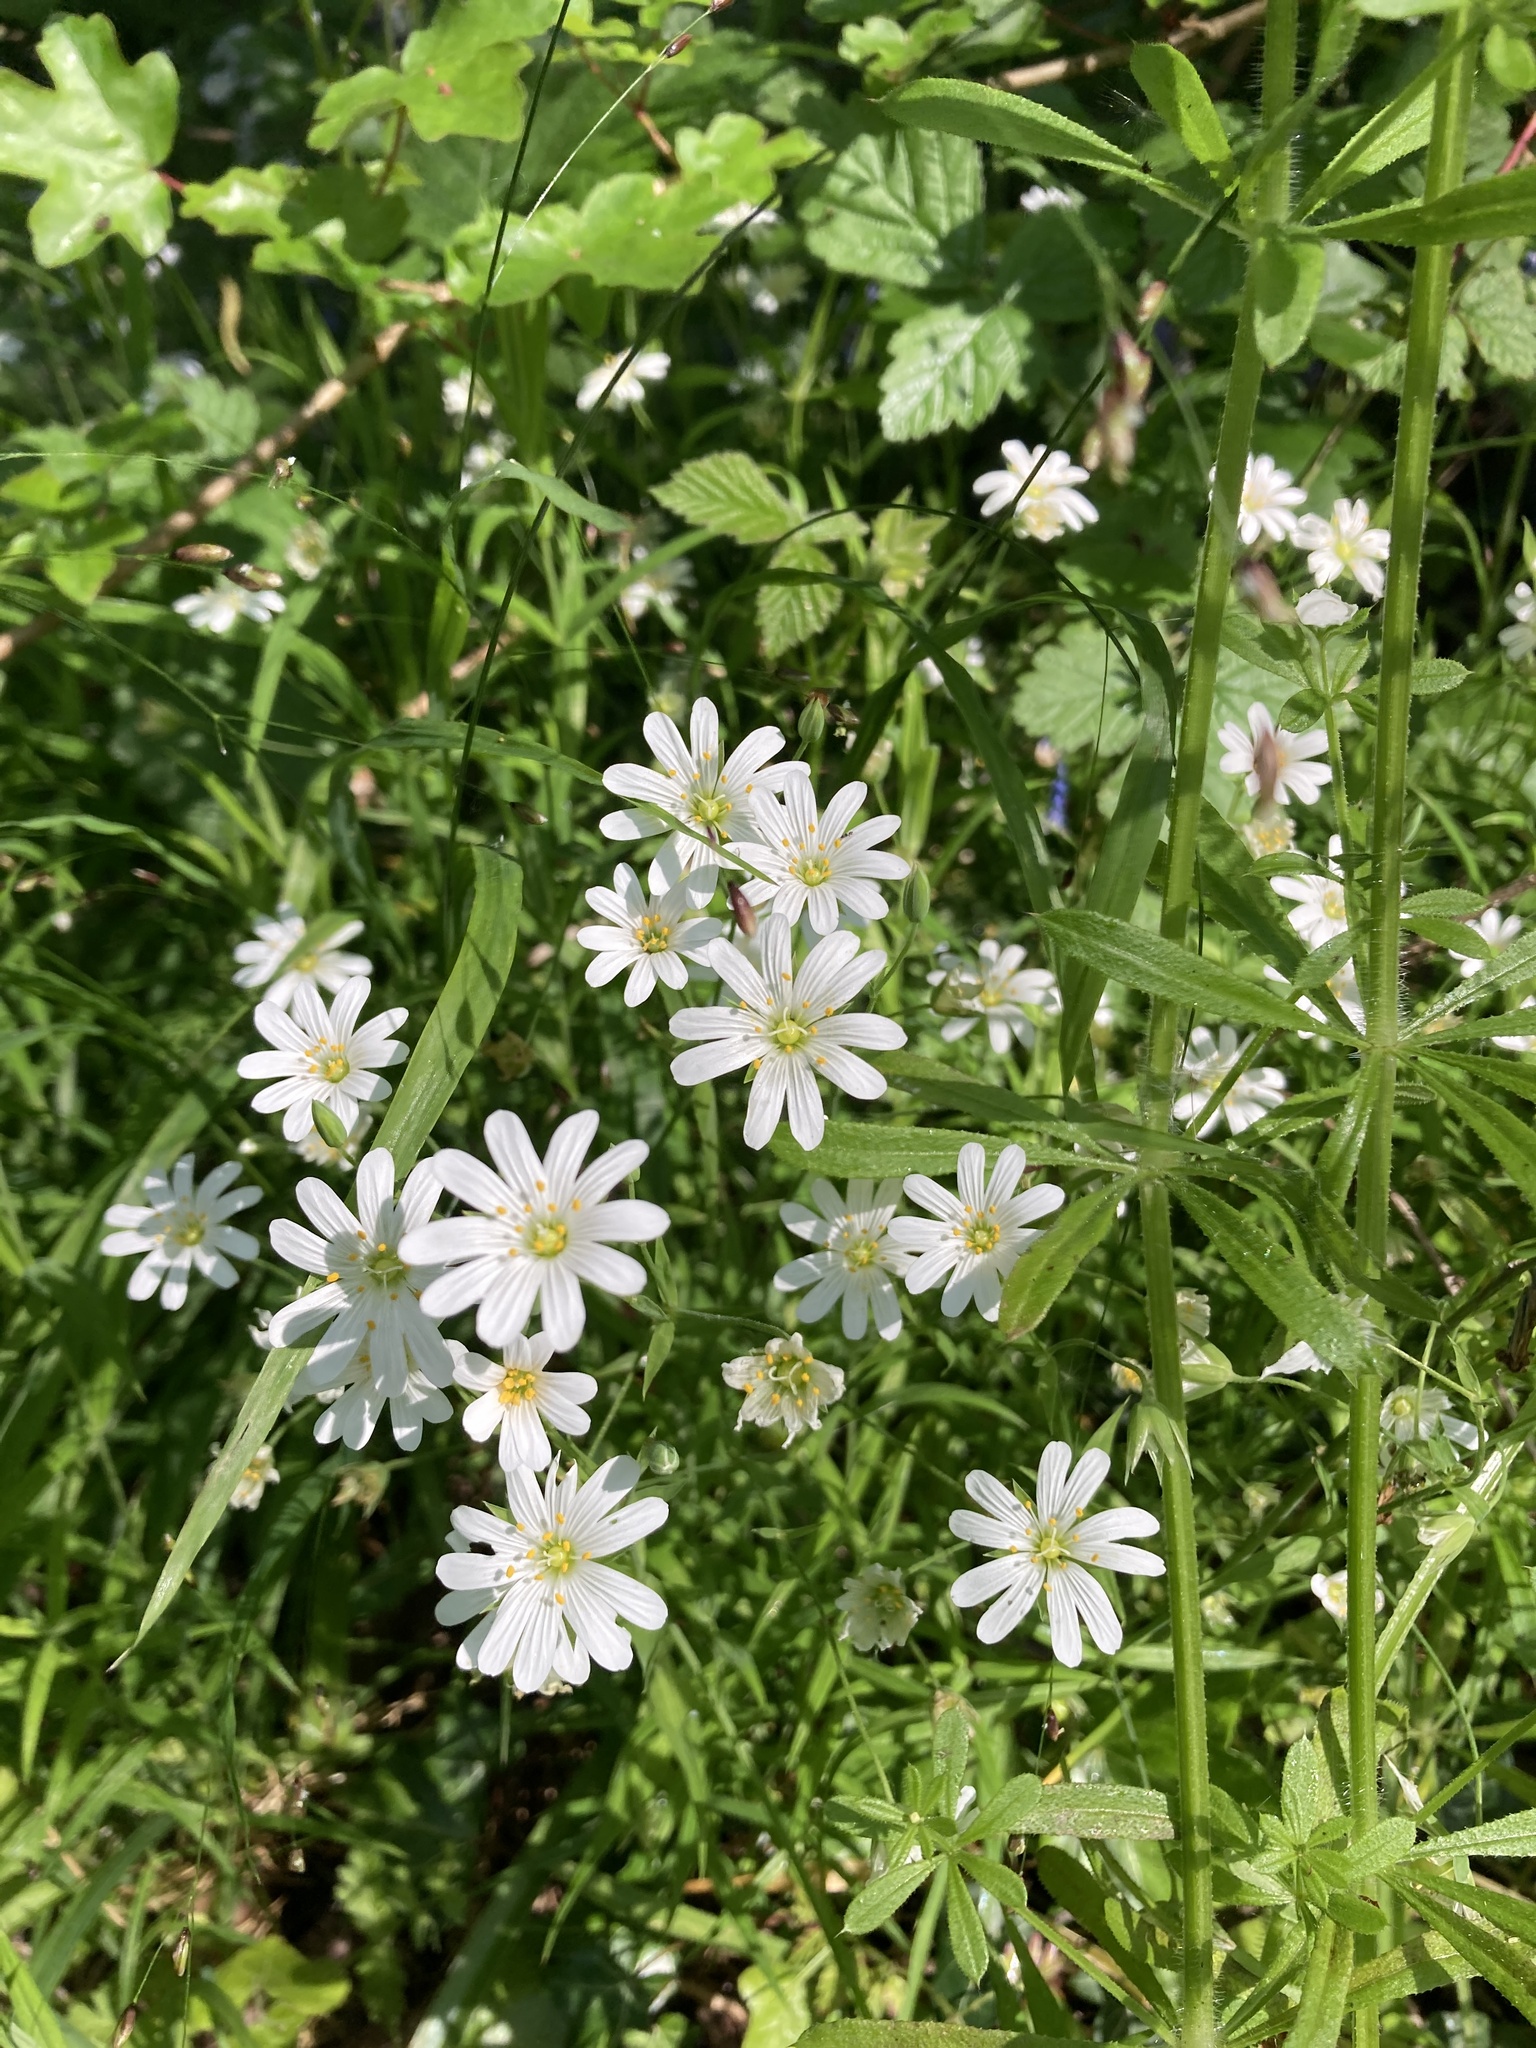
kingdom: Plantae
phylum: Tracheophyta
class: Magnoliopsida
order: Caryophyllales
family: Caryophyllaceae
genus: Rabelera
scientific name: Rabelera holostea
